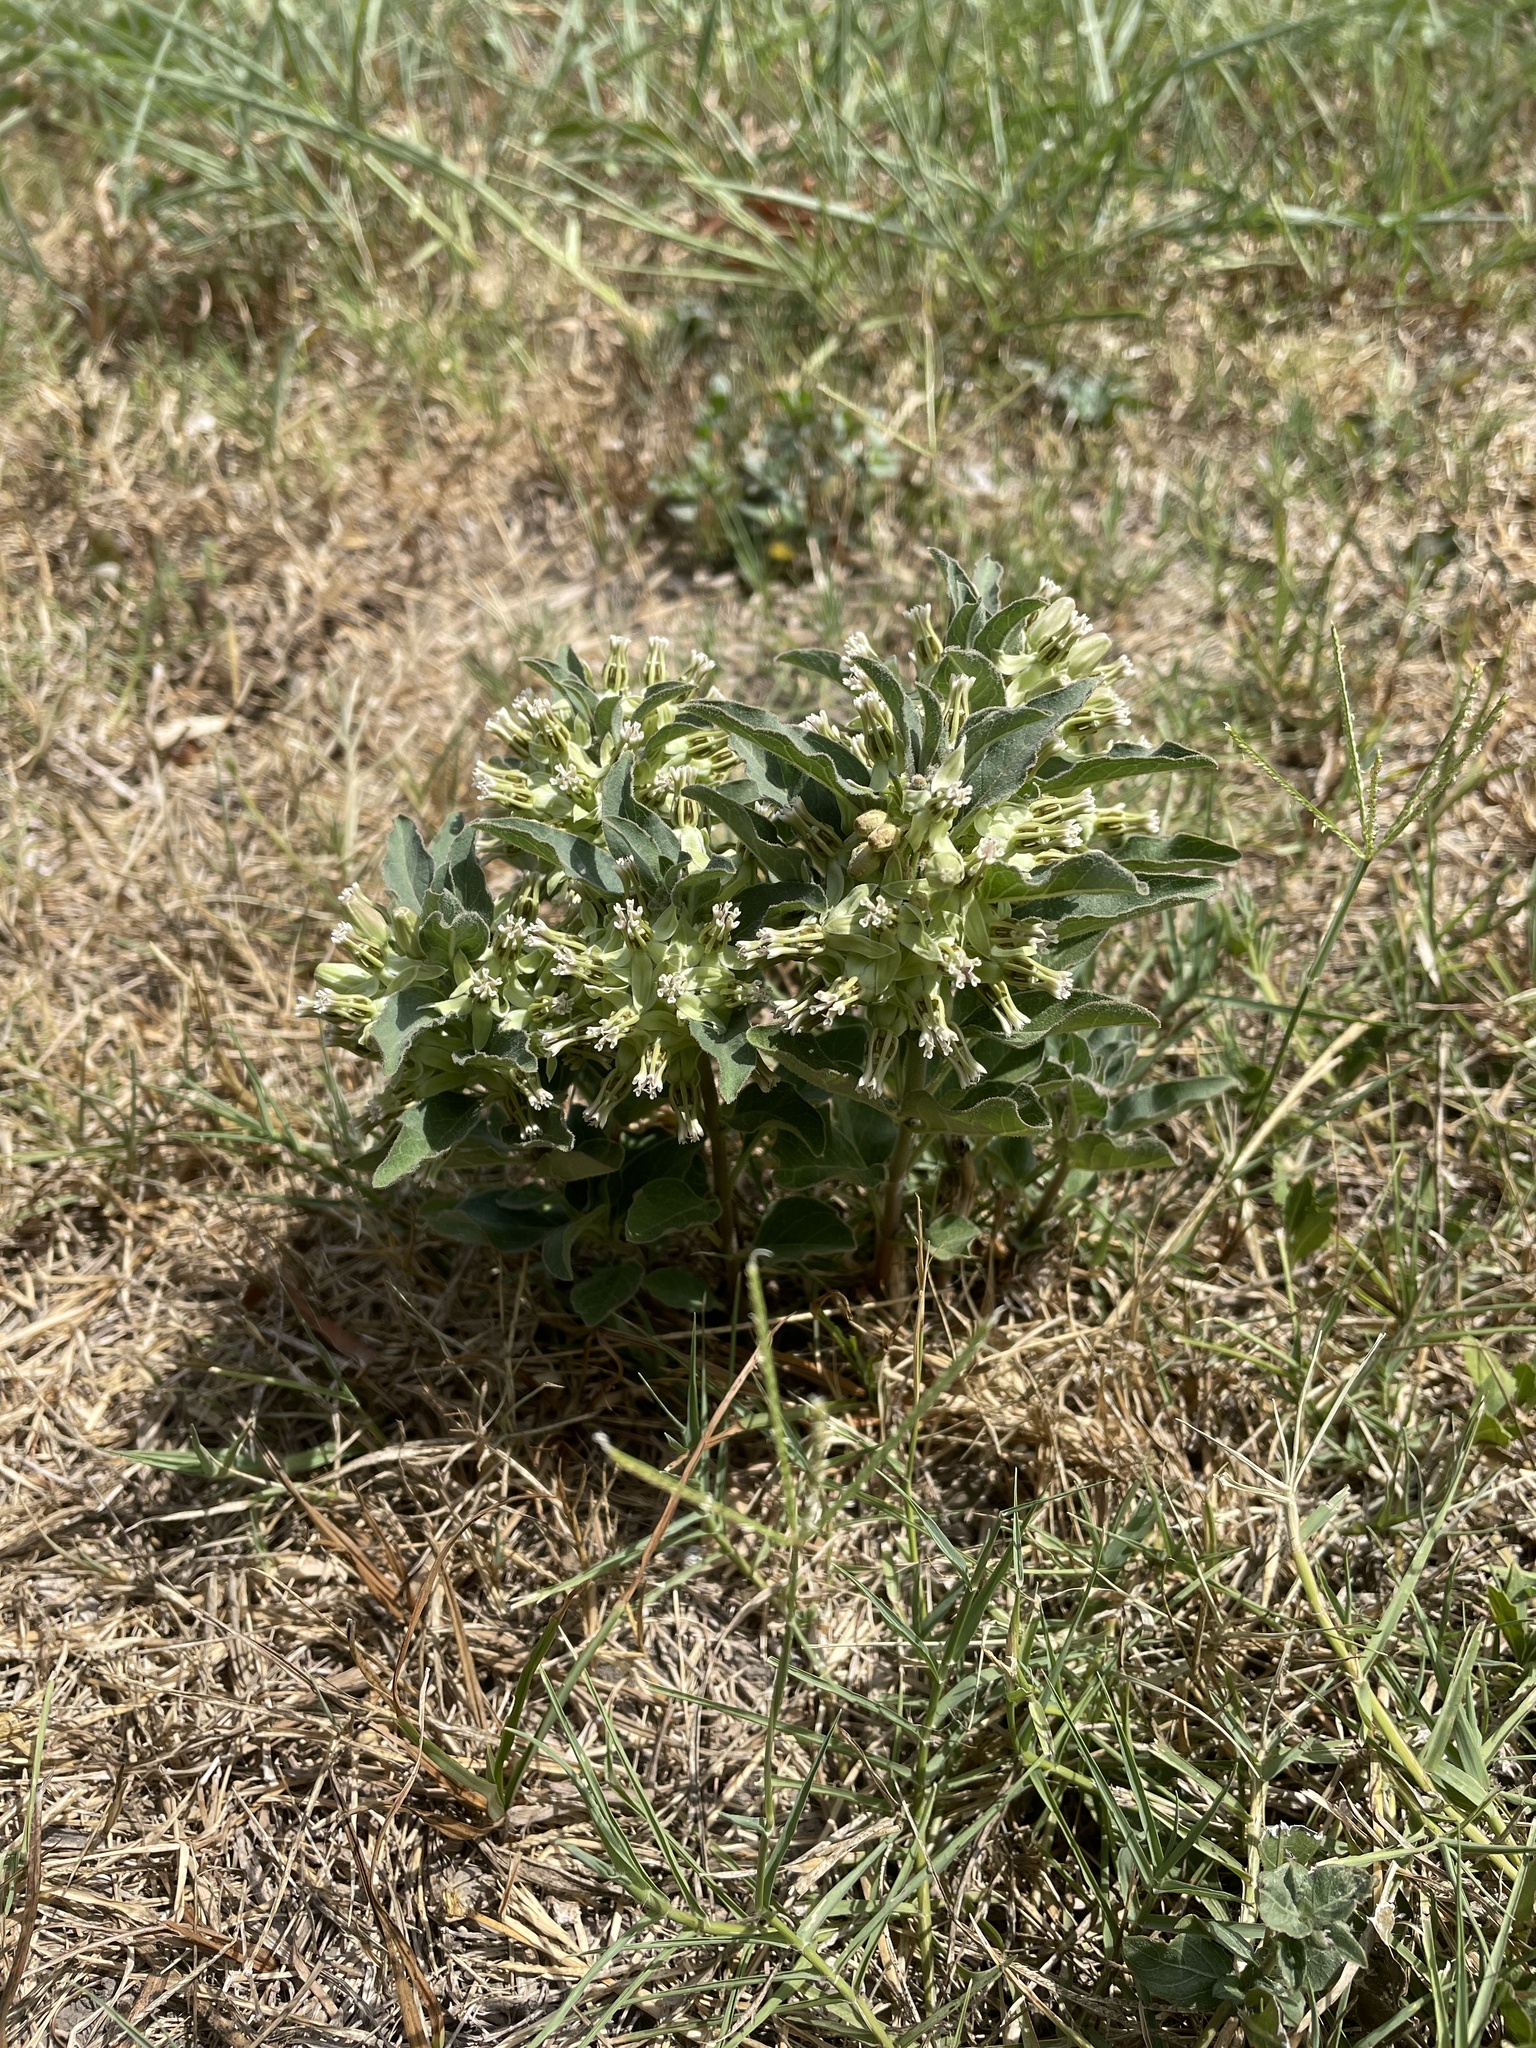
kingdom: Plantae
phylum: Tracheophyta
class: Magnoliopsida
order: Gentianales
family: Apocynaceae
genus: Asclepias
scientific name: Asclepias oenotheroides
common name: Zizotes milkweed
